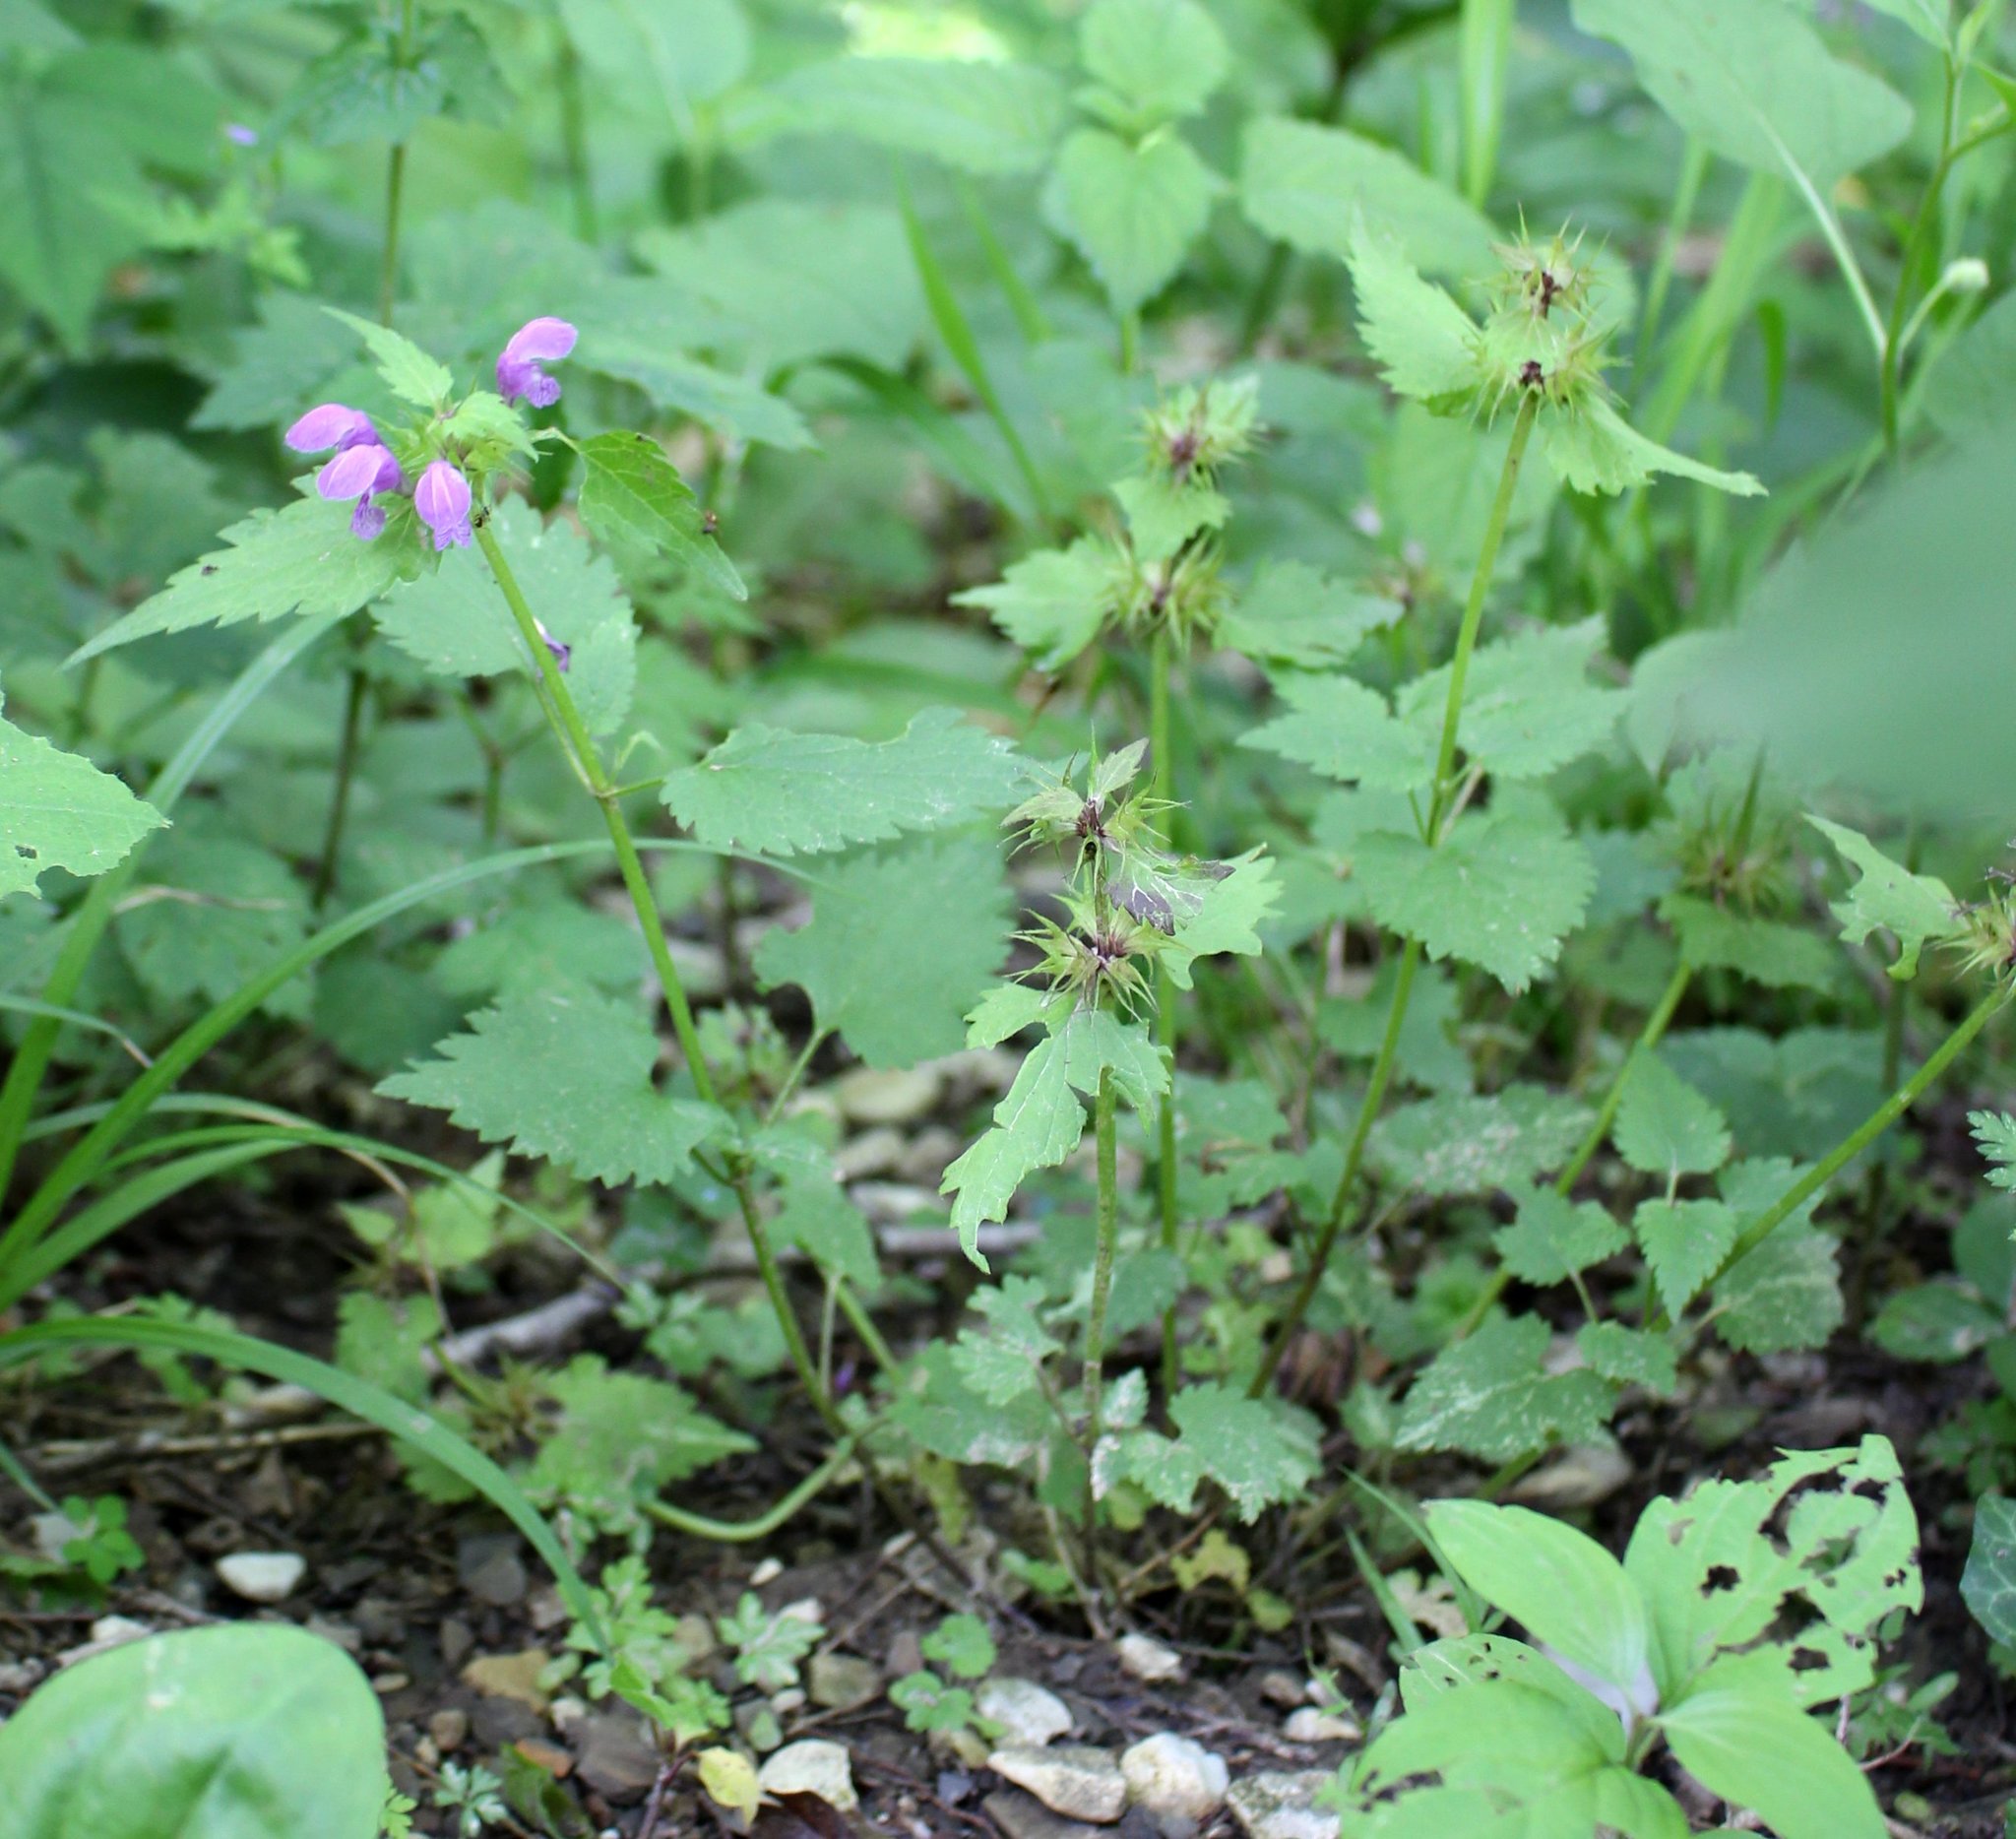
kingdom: Plantae
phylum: Tracheophyta
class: Magnoliopsida
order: Lamiales
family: Lamiaceae
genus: Lamium
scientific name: Lamium maculatum
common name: Spotted dead-nettle
